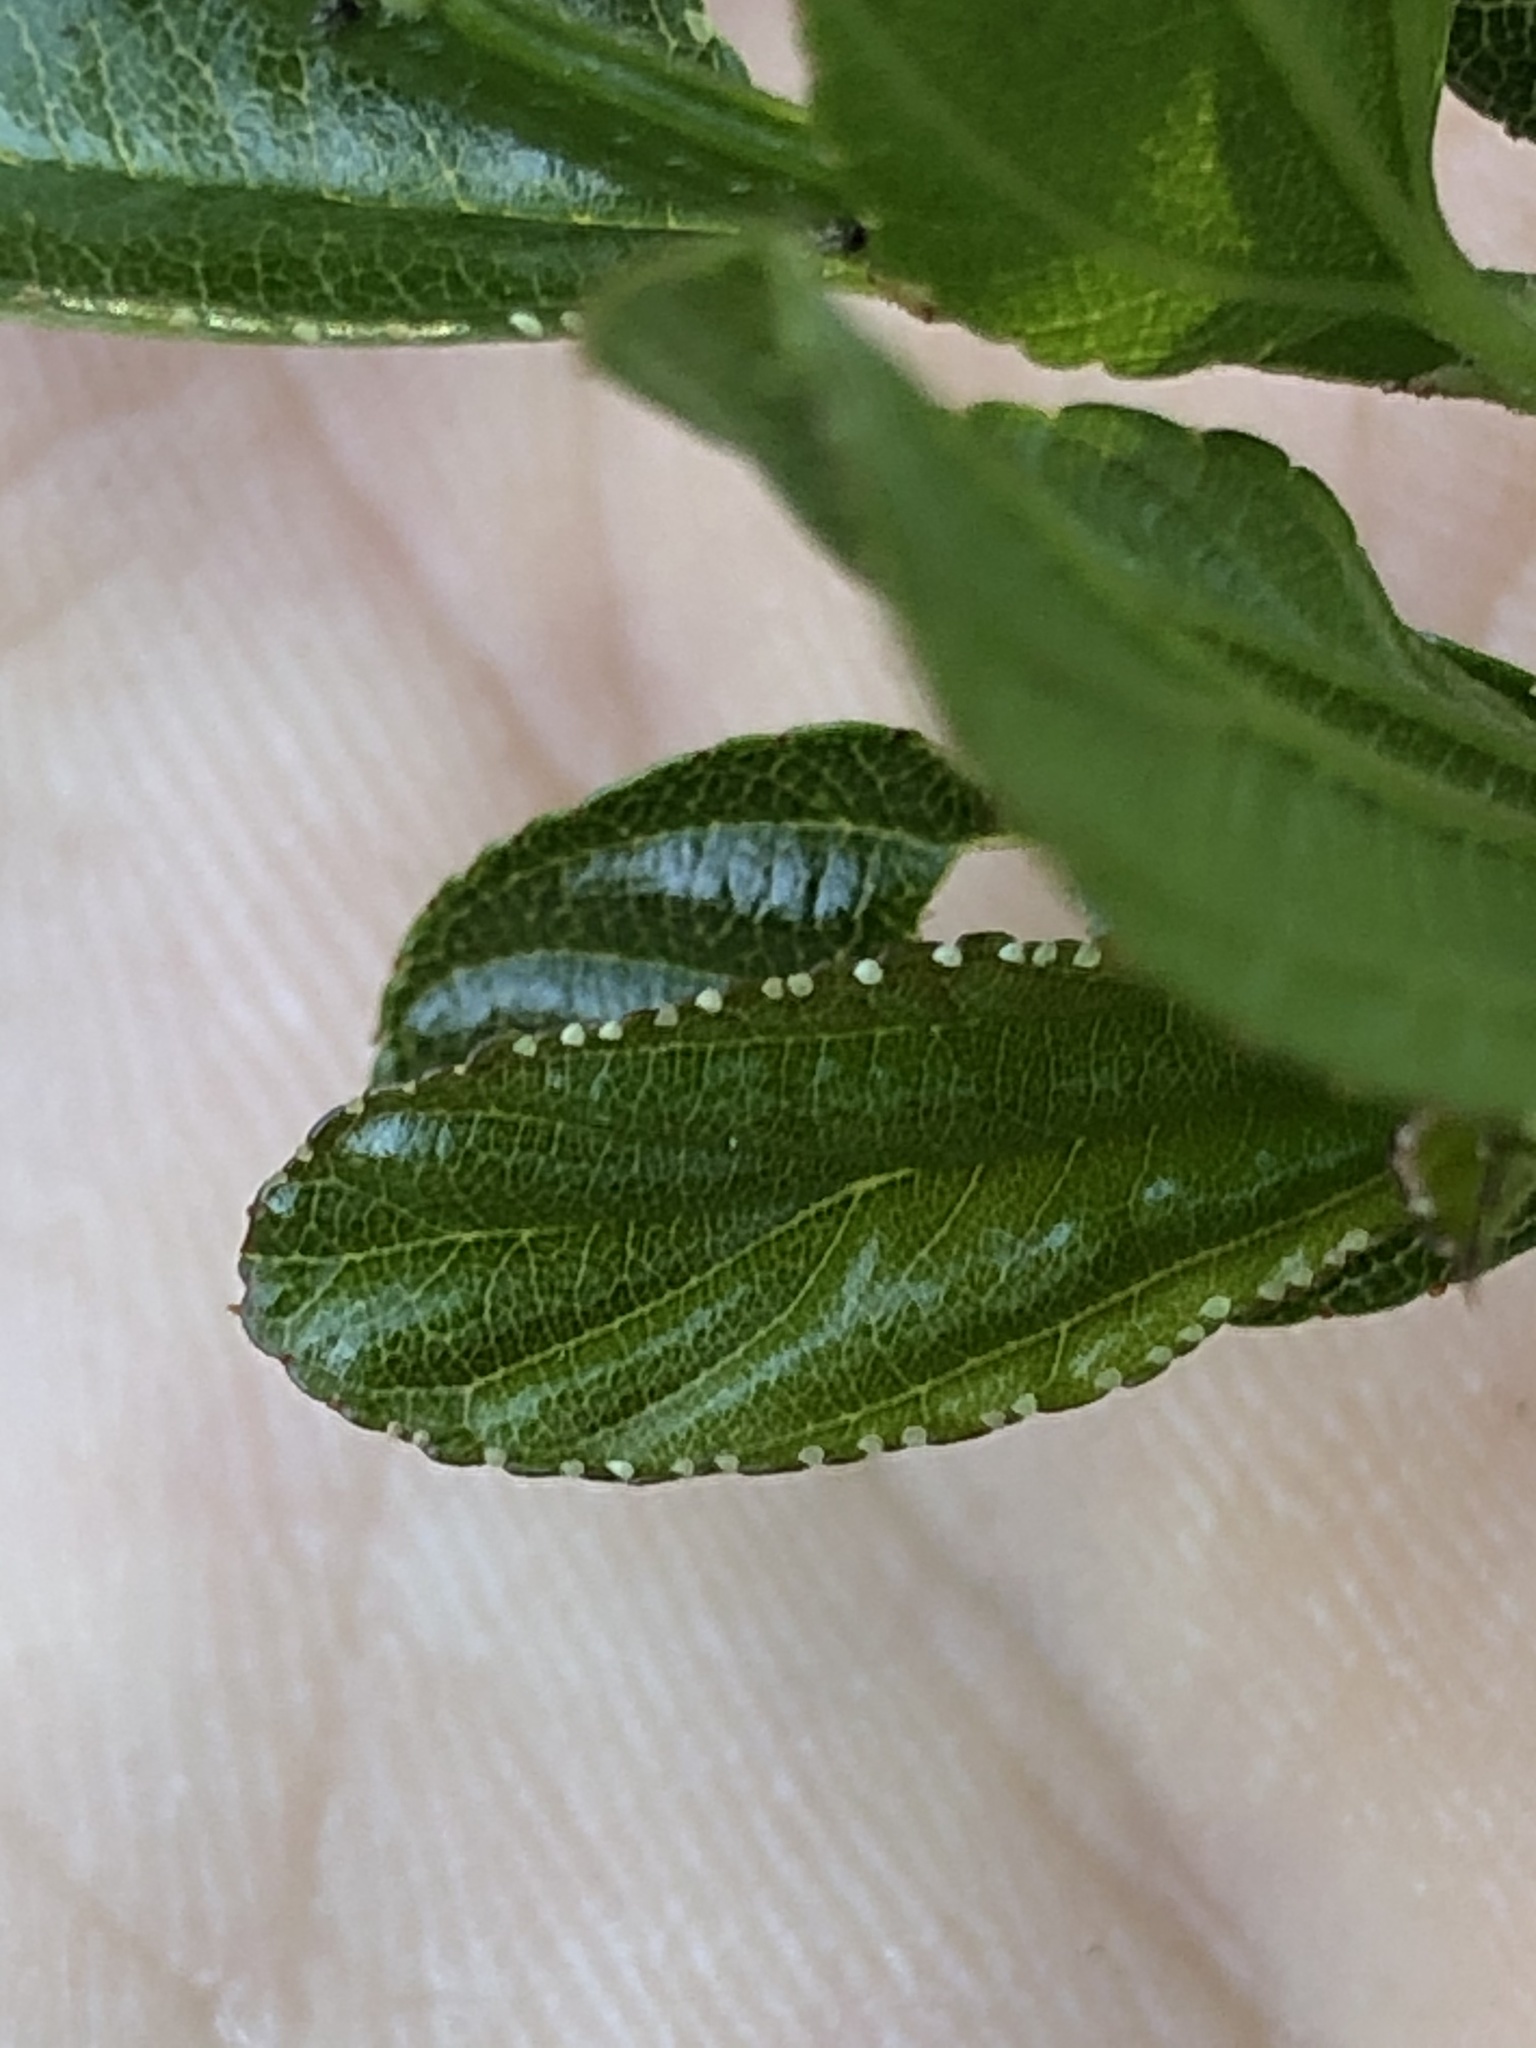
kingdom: Plantae
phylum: Tracheophyta
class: Magnoliopsida
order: Rosales
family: Rhamnaceae
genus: Ceanothus
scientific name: Ceanothus thyrsiflorus
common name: California-lilac
